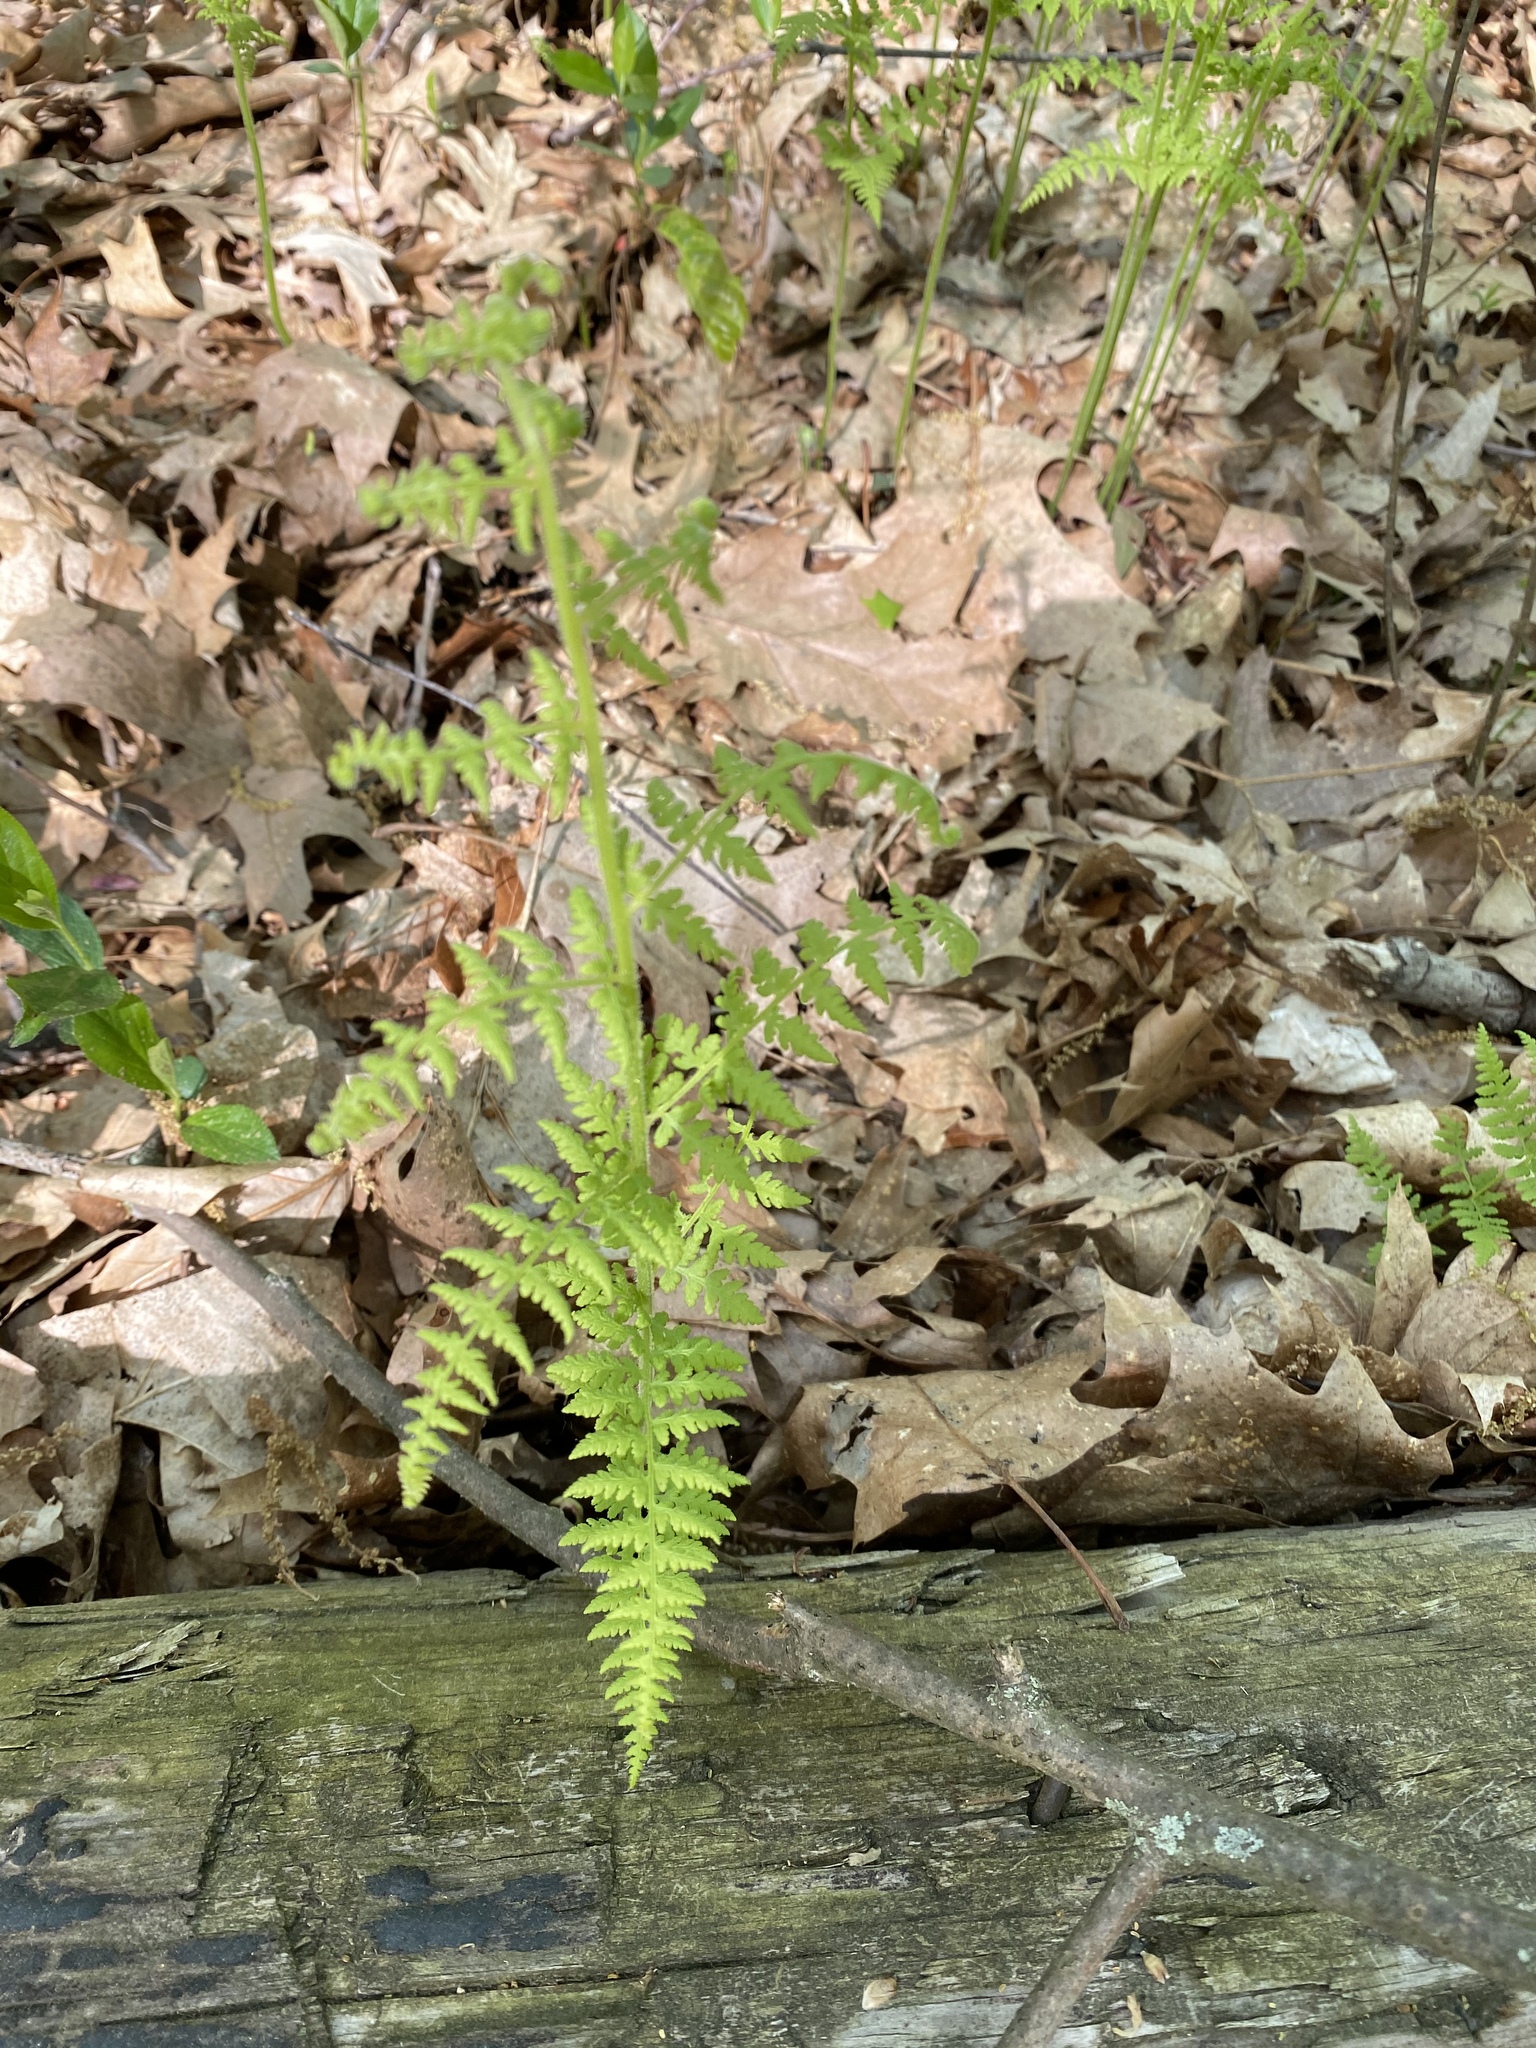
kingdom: Plantae
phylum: Tracheophyta
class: Polypodiopsida
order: Polypodiales
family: Dennstaedtiaceae
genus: Sitobolium
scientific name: Sitobolium punctilobum
